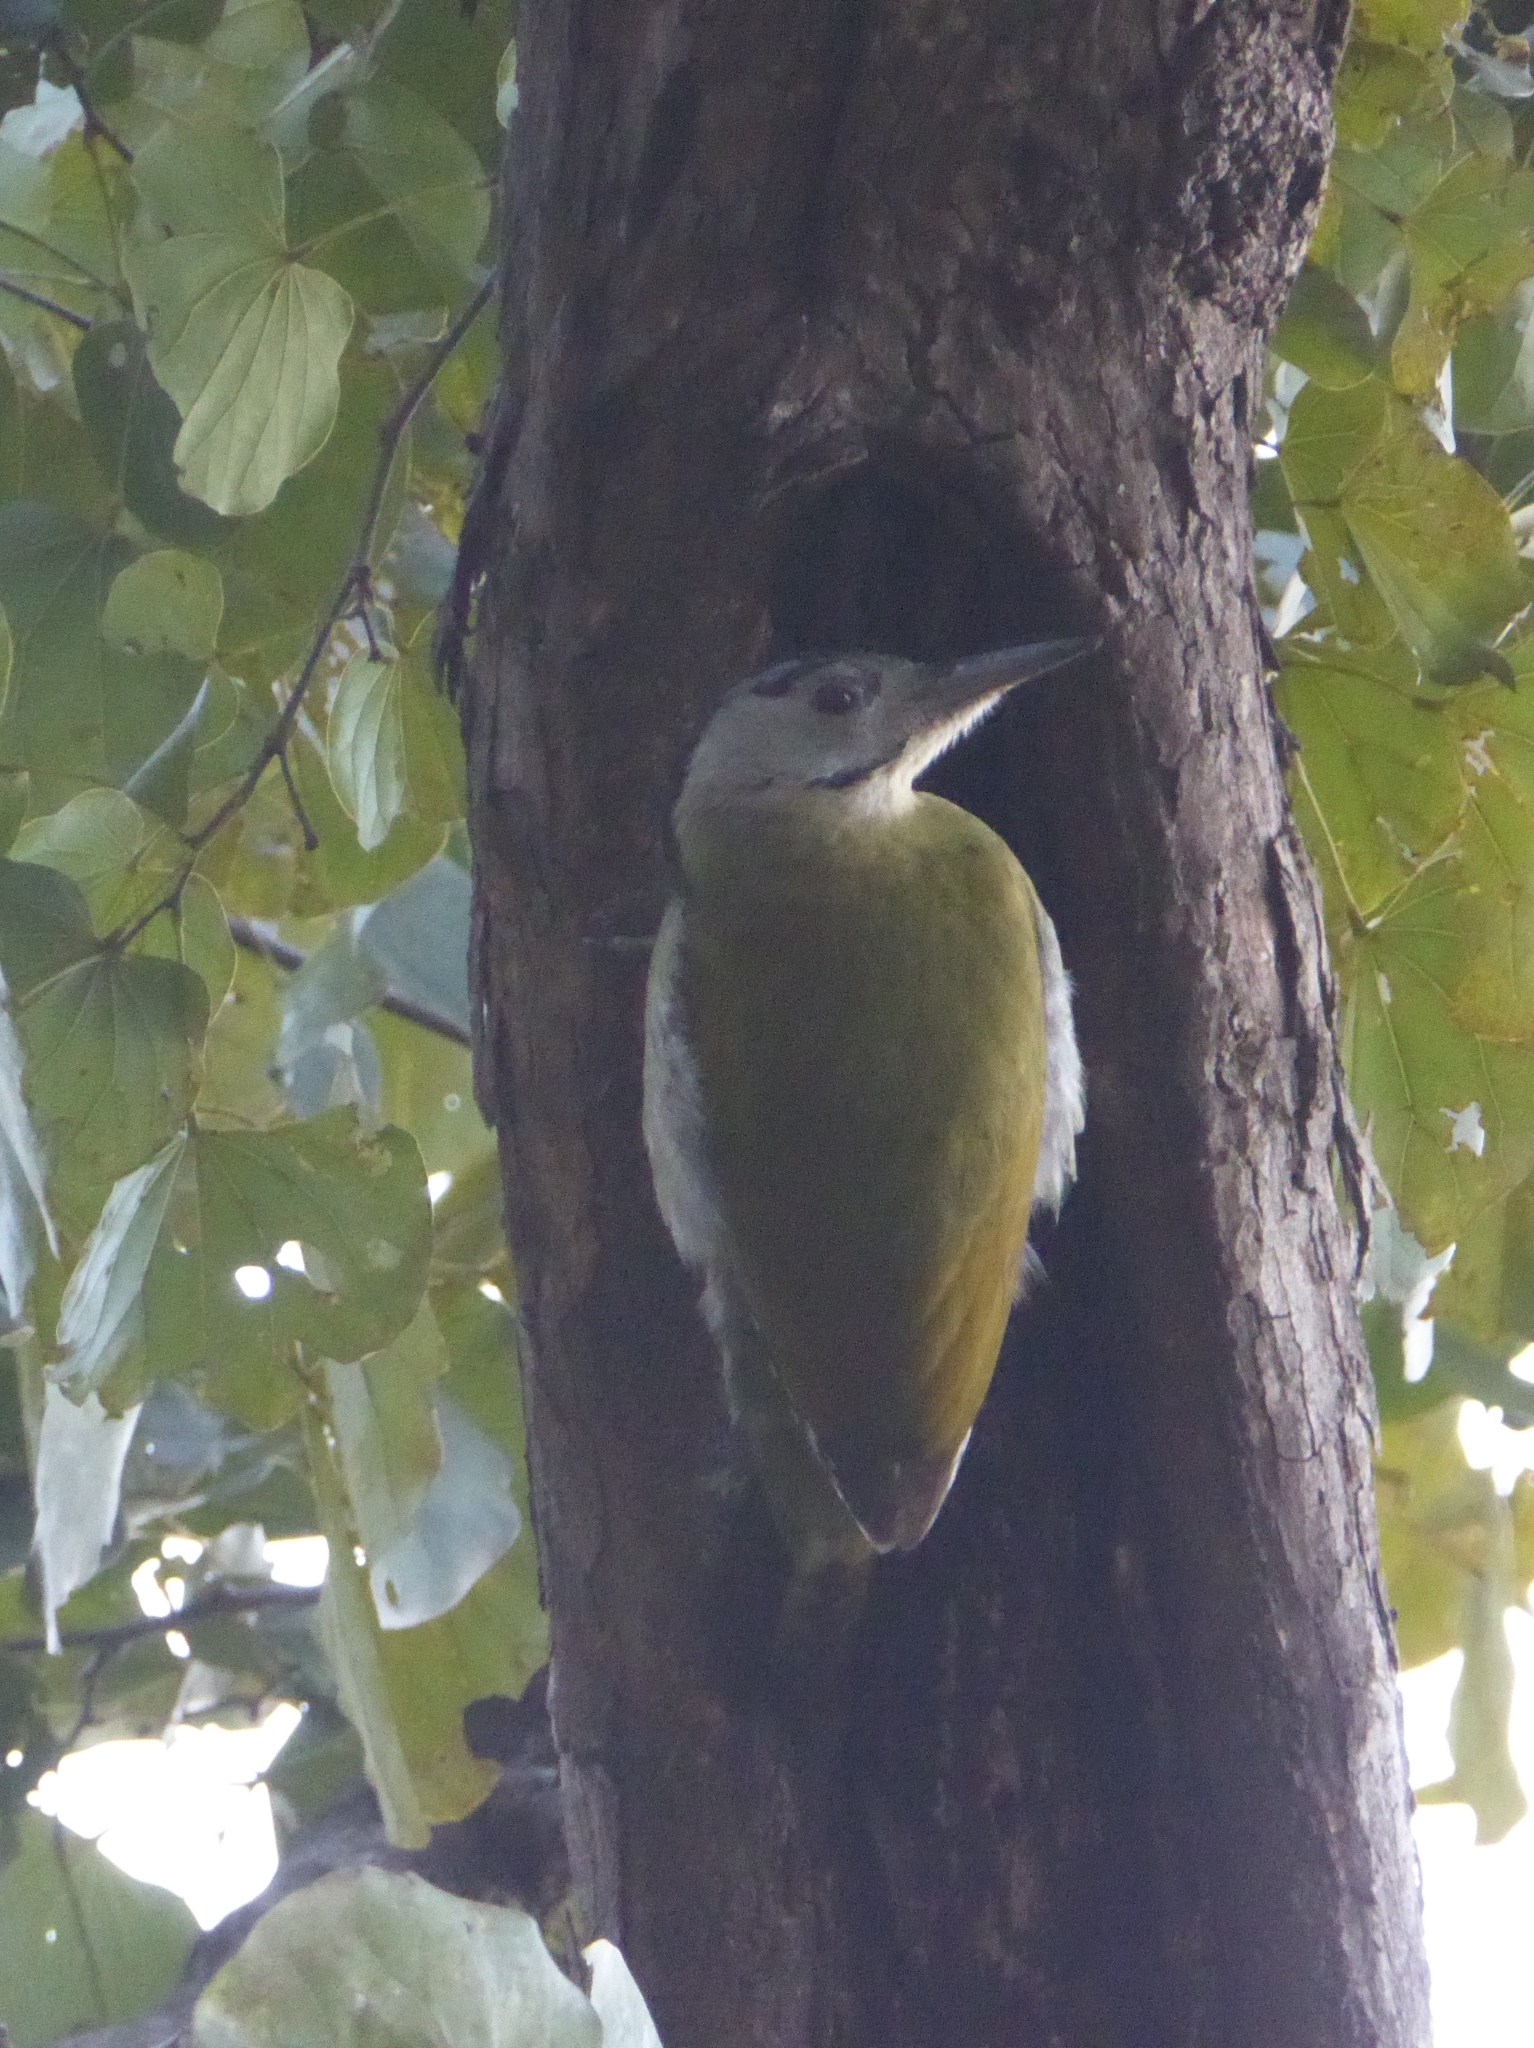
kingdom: Animalia
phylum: Chordata
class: Aves
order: Piciformes
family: Picidae
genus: Picus
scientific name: Picus canus
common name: Grey-headed woodpecker
